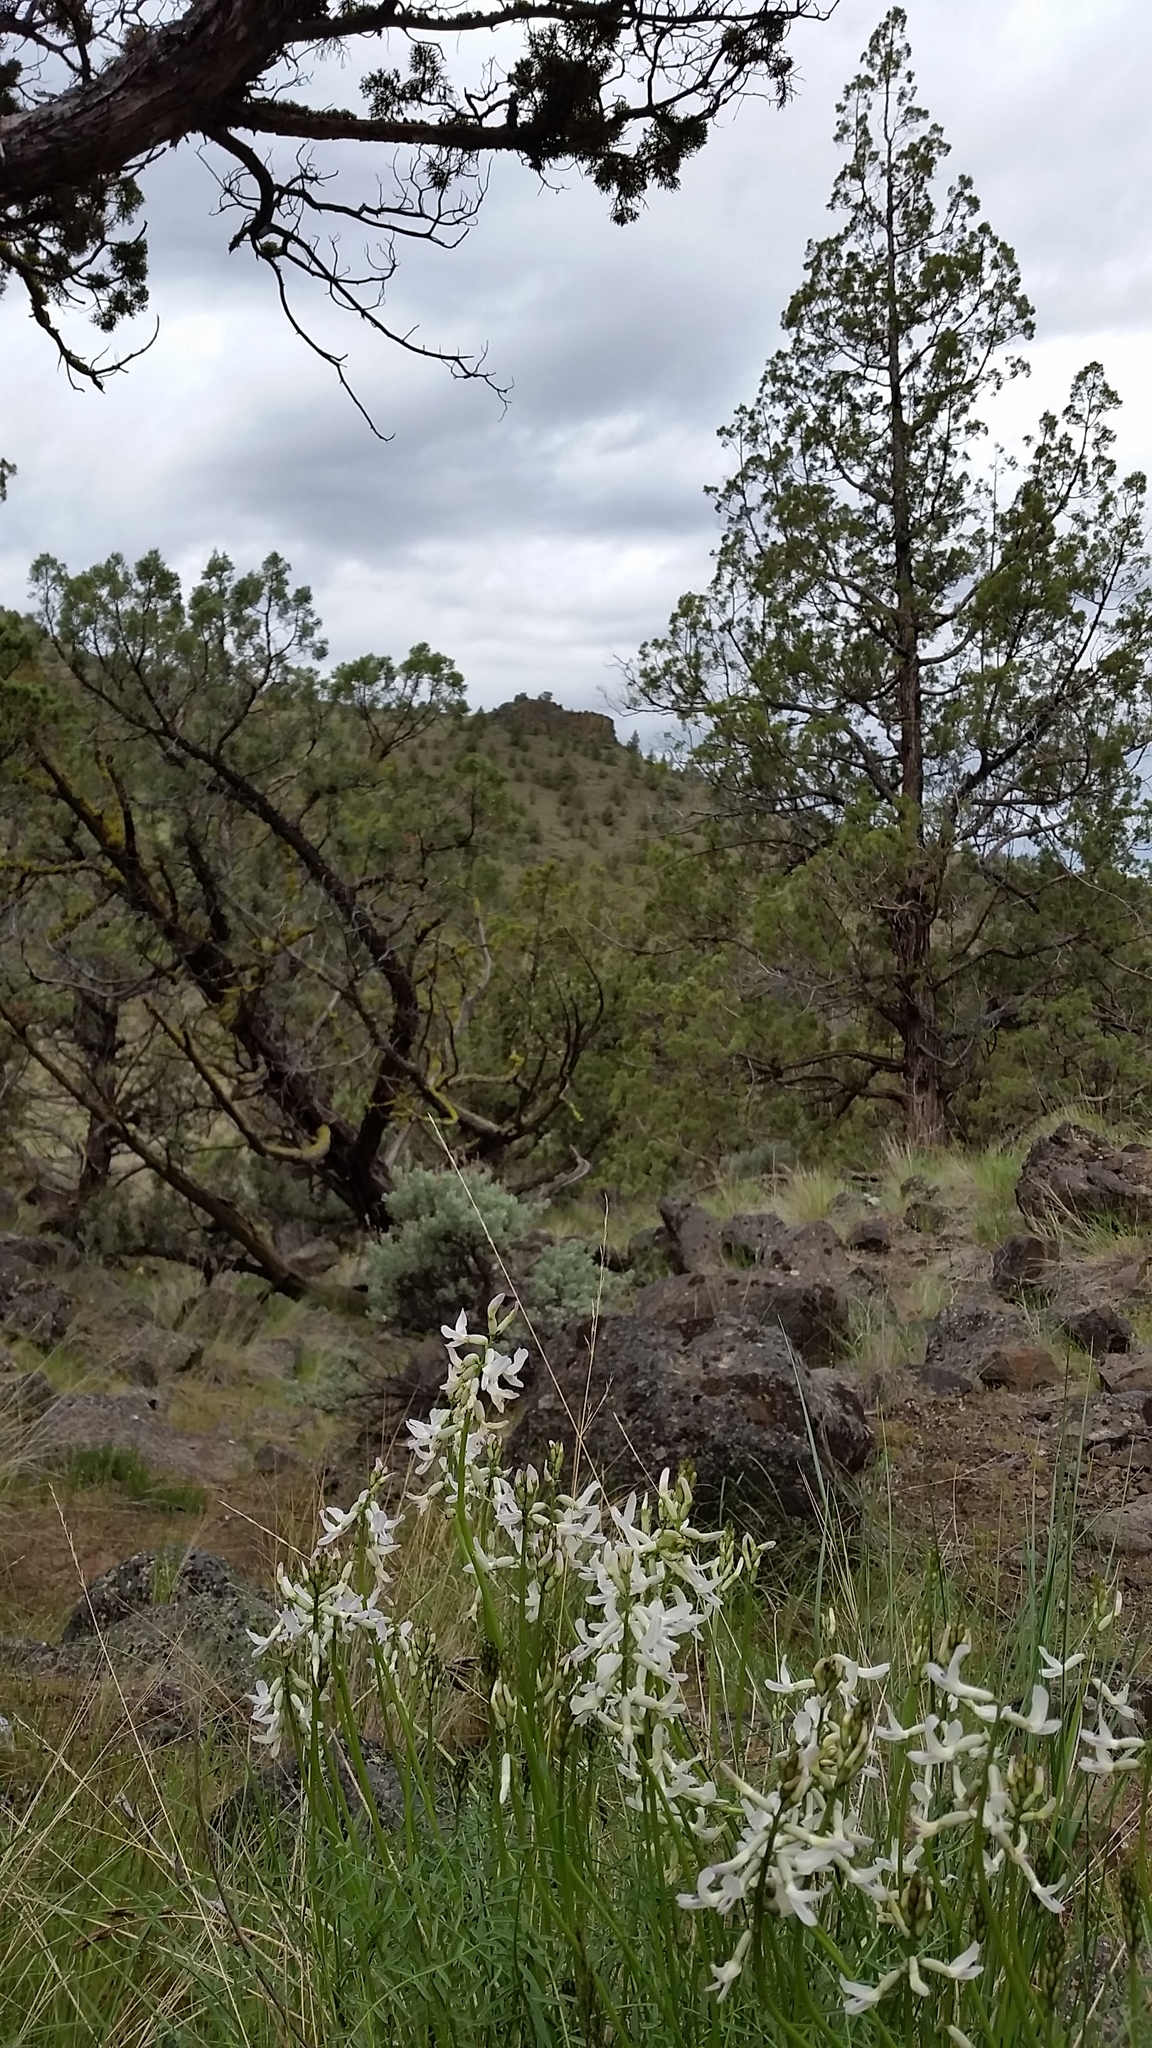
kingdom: Plantae
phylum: Tracheophyta
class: Magnoliopsida
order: Fabales
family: Fabaceae
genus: Astragalus
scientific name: Astragalus conjunctus
